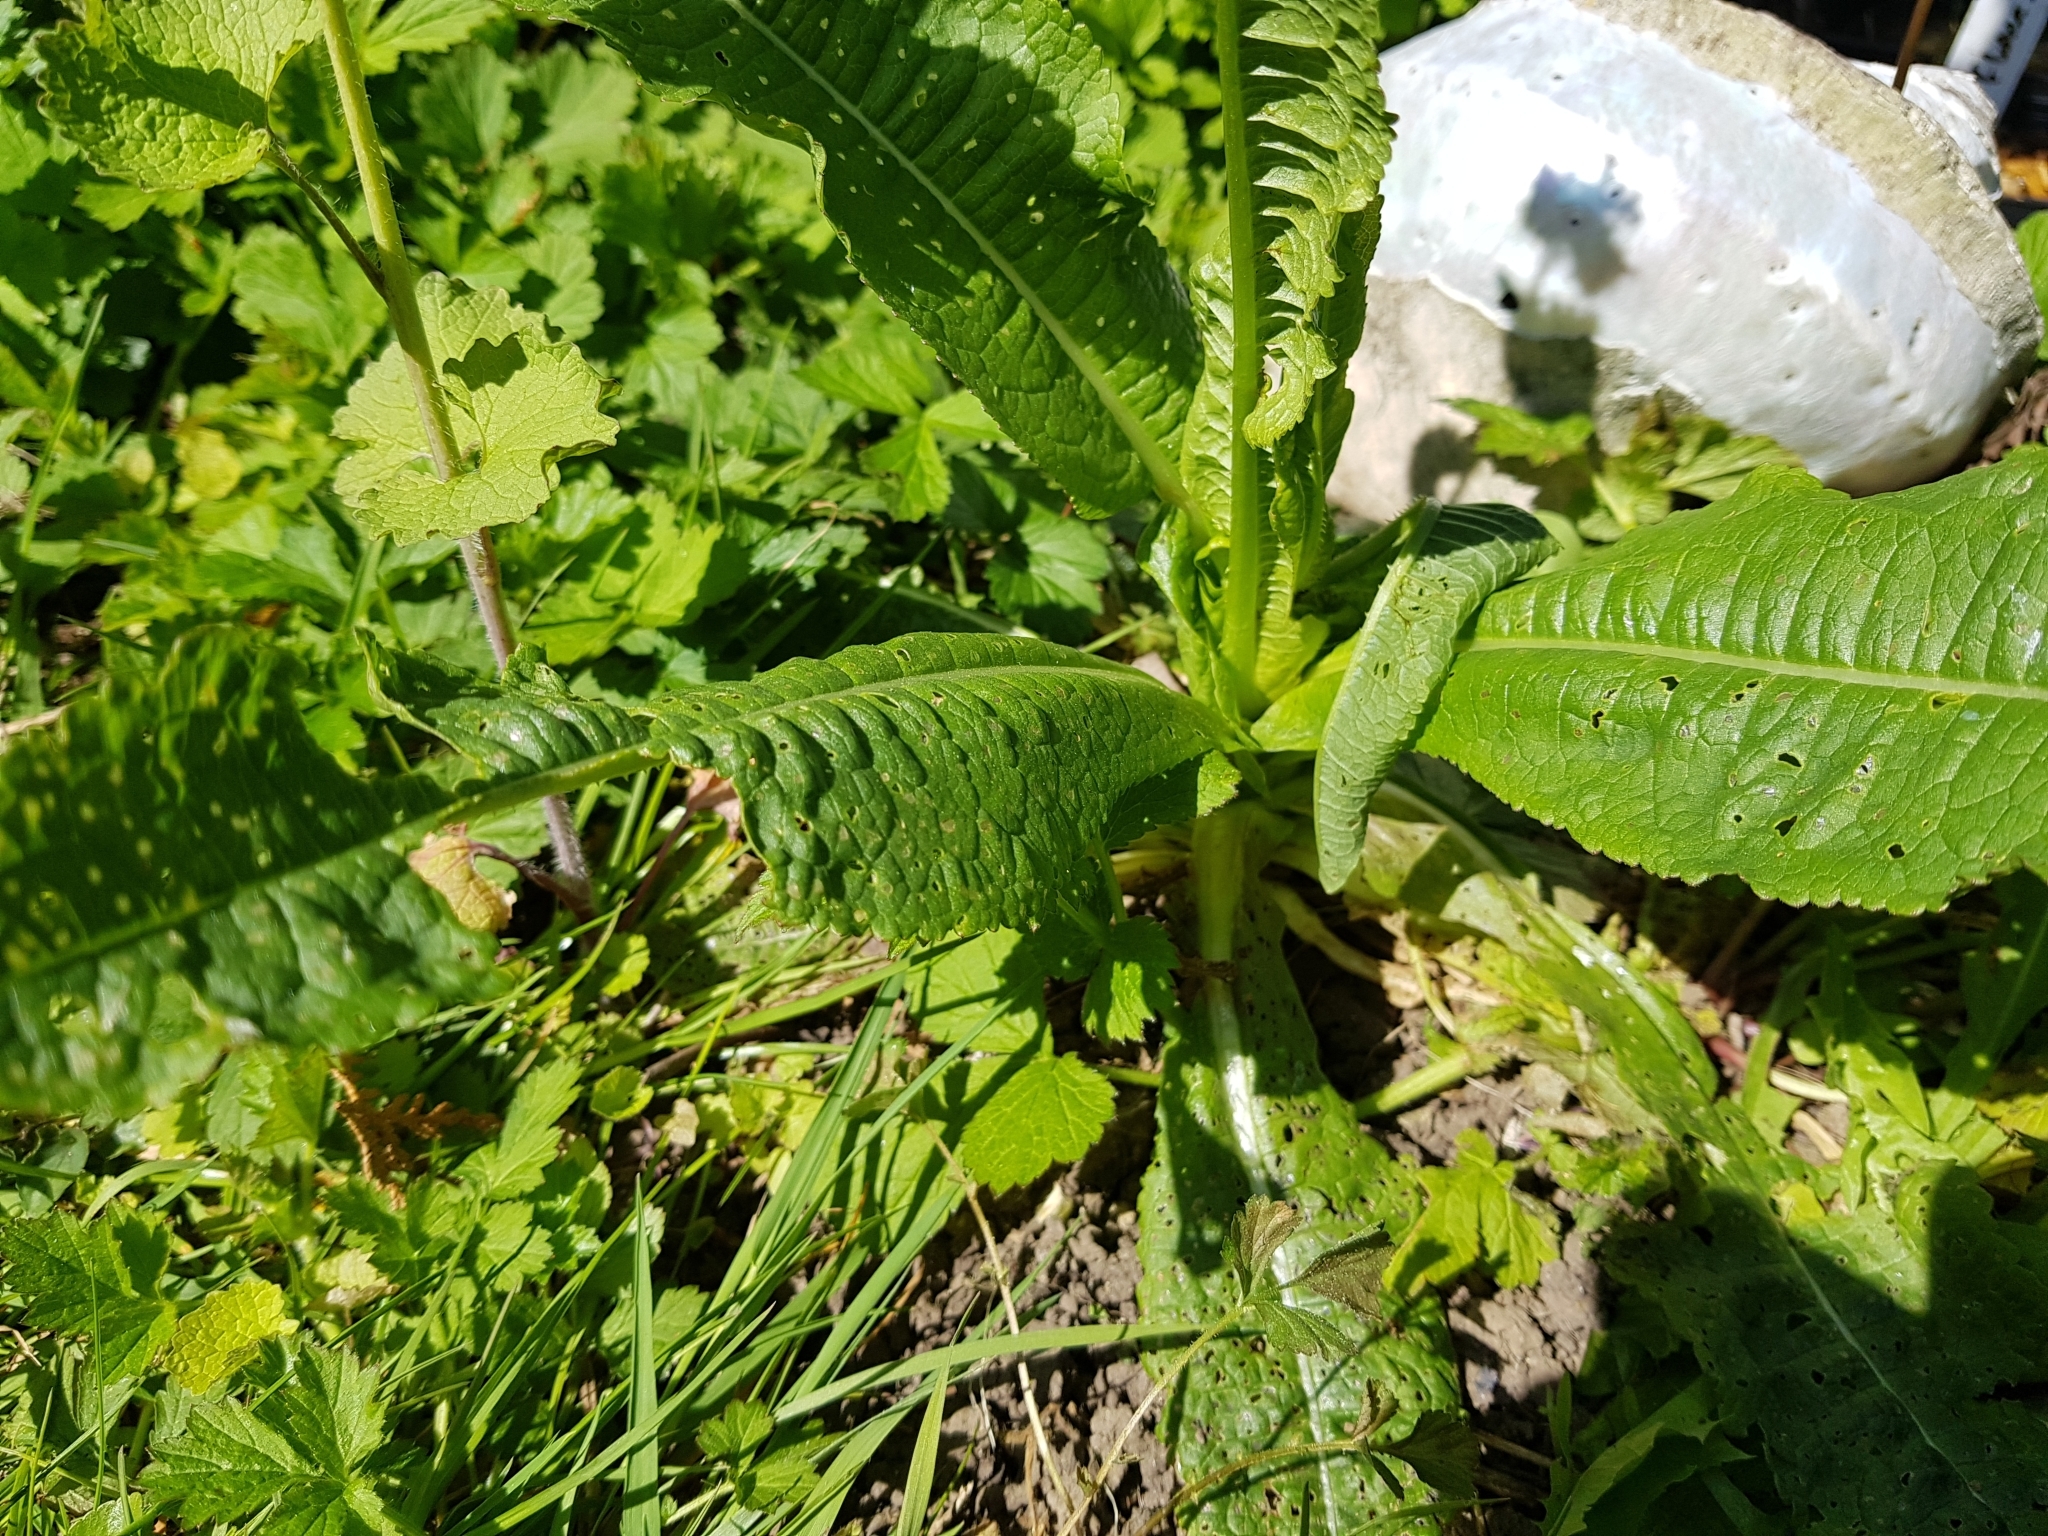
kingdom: Plantae
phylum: Tracheophyta
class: Magnoliopsida
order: Dipsacales
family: Caprifoliaceae
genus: Dipsacus
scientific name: Dipsacus fullonum
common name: Teasel
